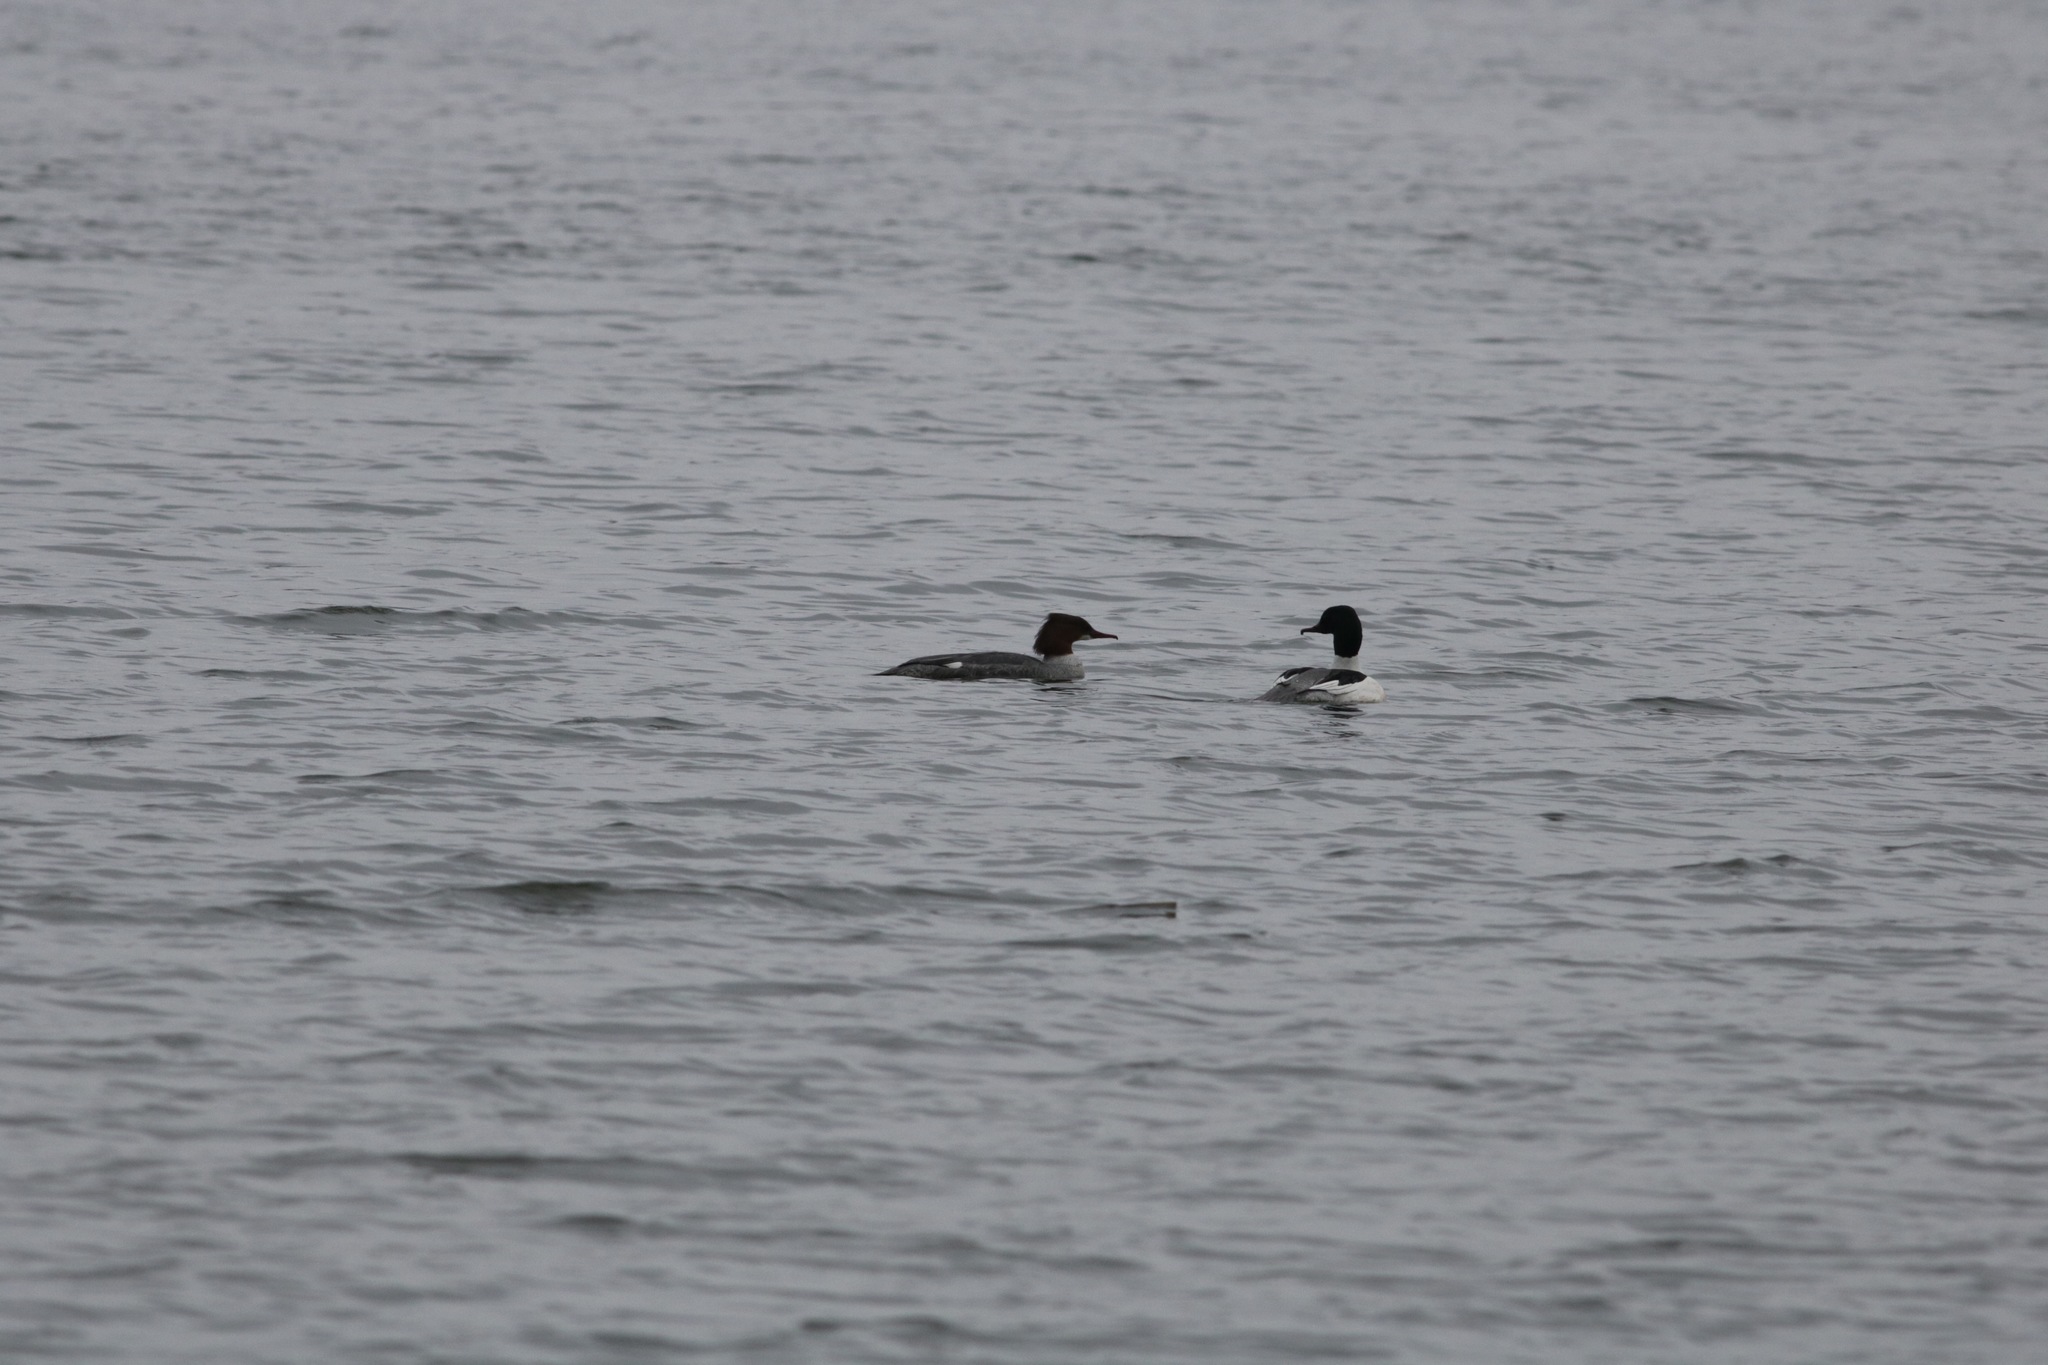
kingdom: Animalia
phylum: Chordata
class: Aves
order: Anseriformes
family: Anatidae
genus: Mergus
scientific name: Mergus merganser
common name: Common merganser
